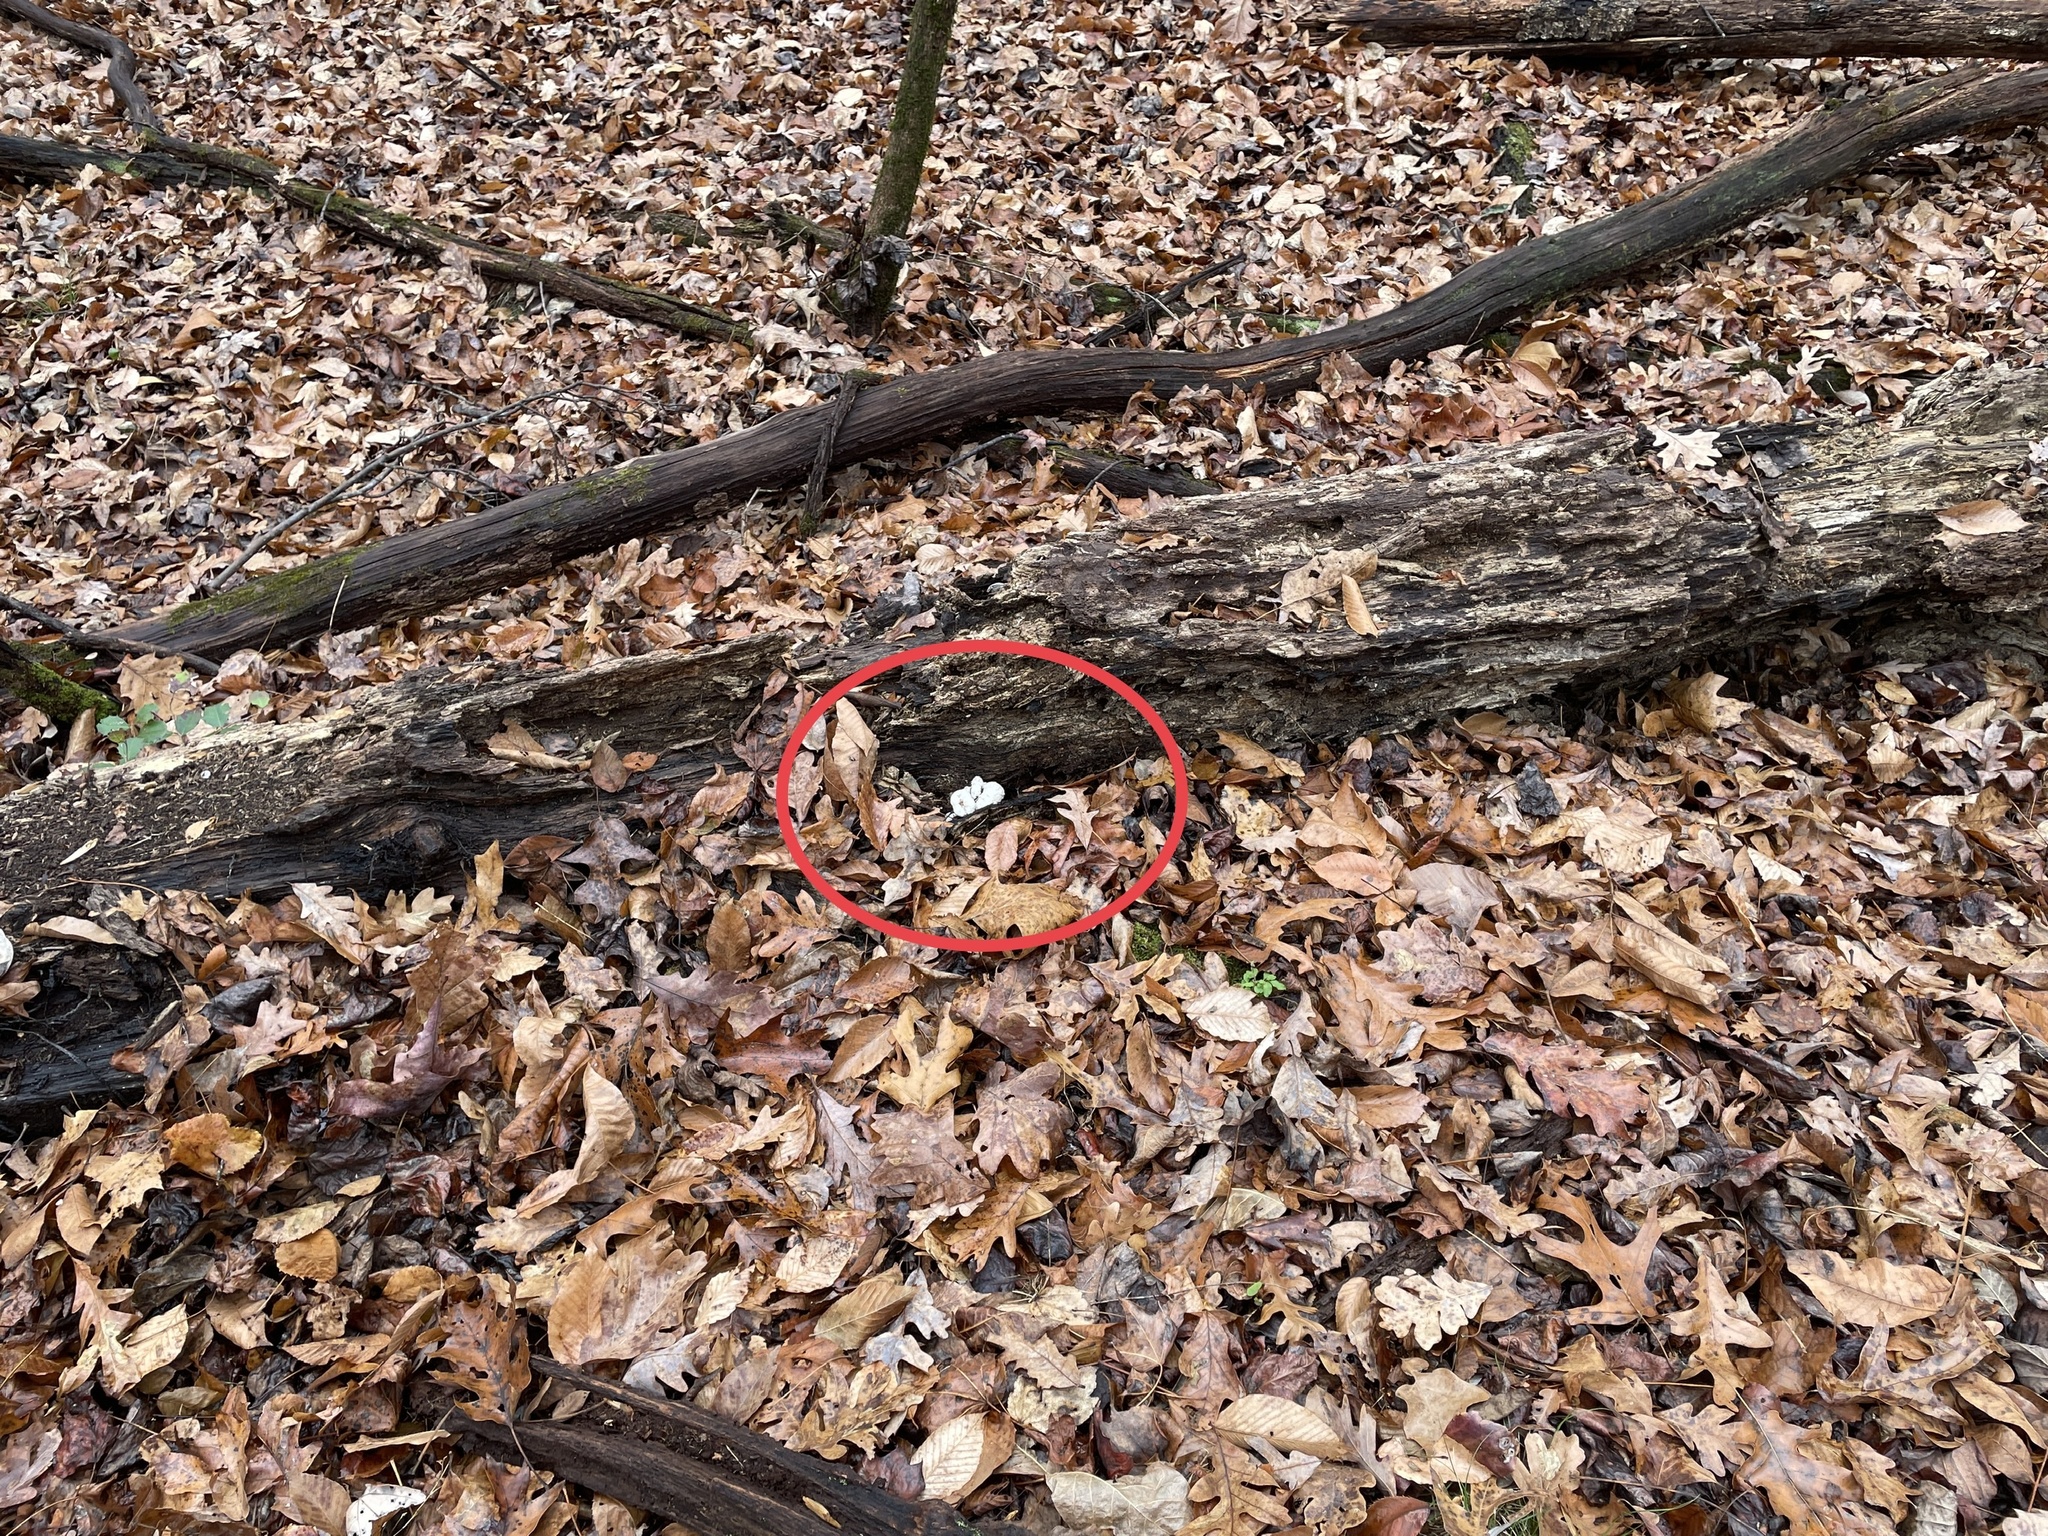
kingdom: Fungi
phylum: Basidiomycota
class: Agaricomycetes
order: Agaricales
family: Entolomataceae
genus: Entoloma
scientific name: Entoloma abortivum
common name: Aborted entoloma
